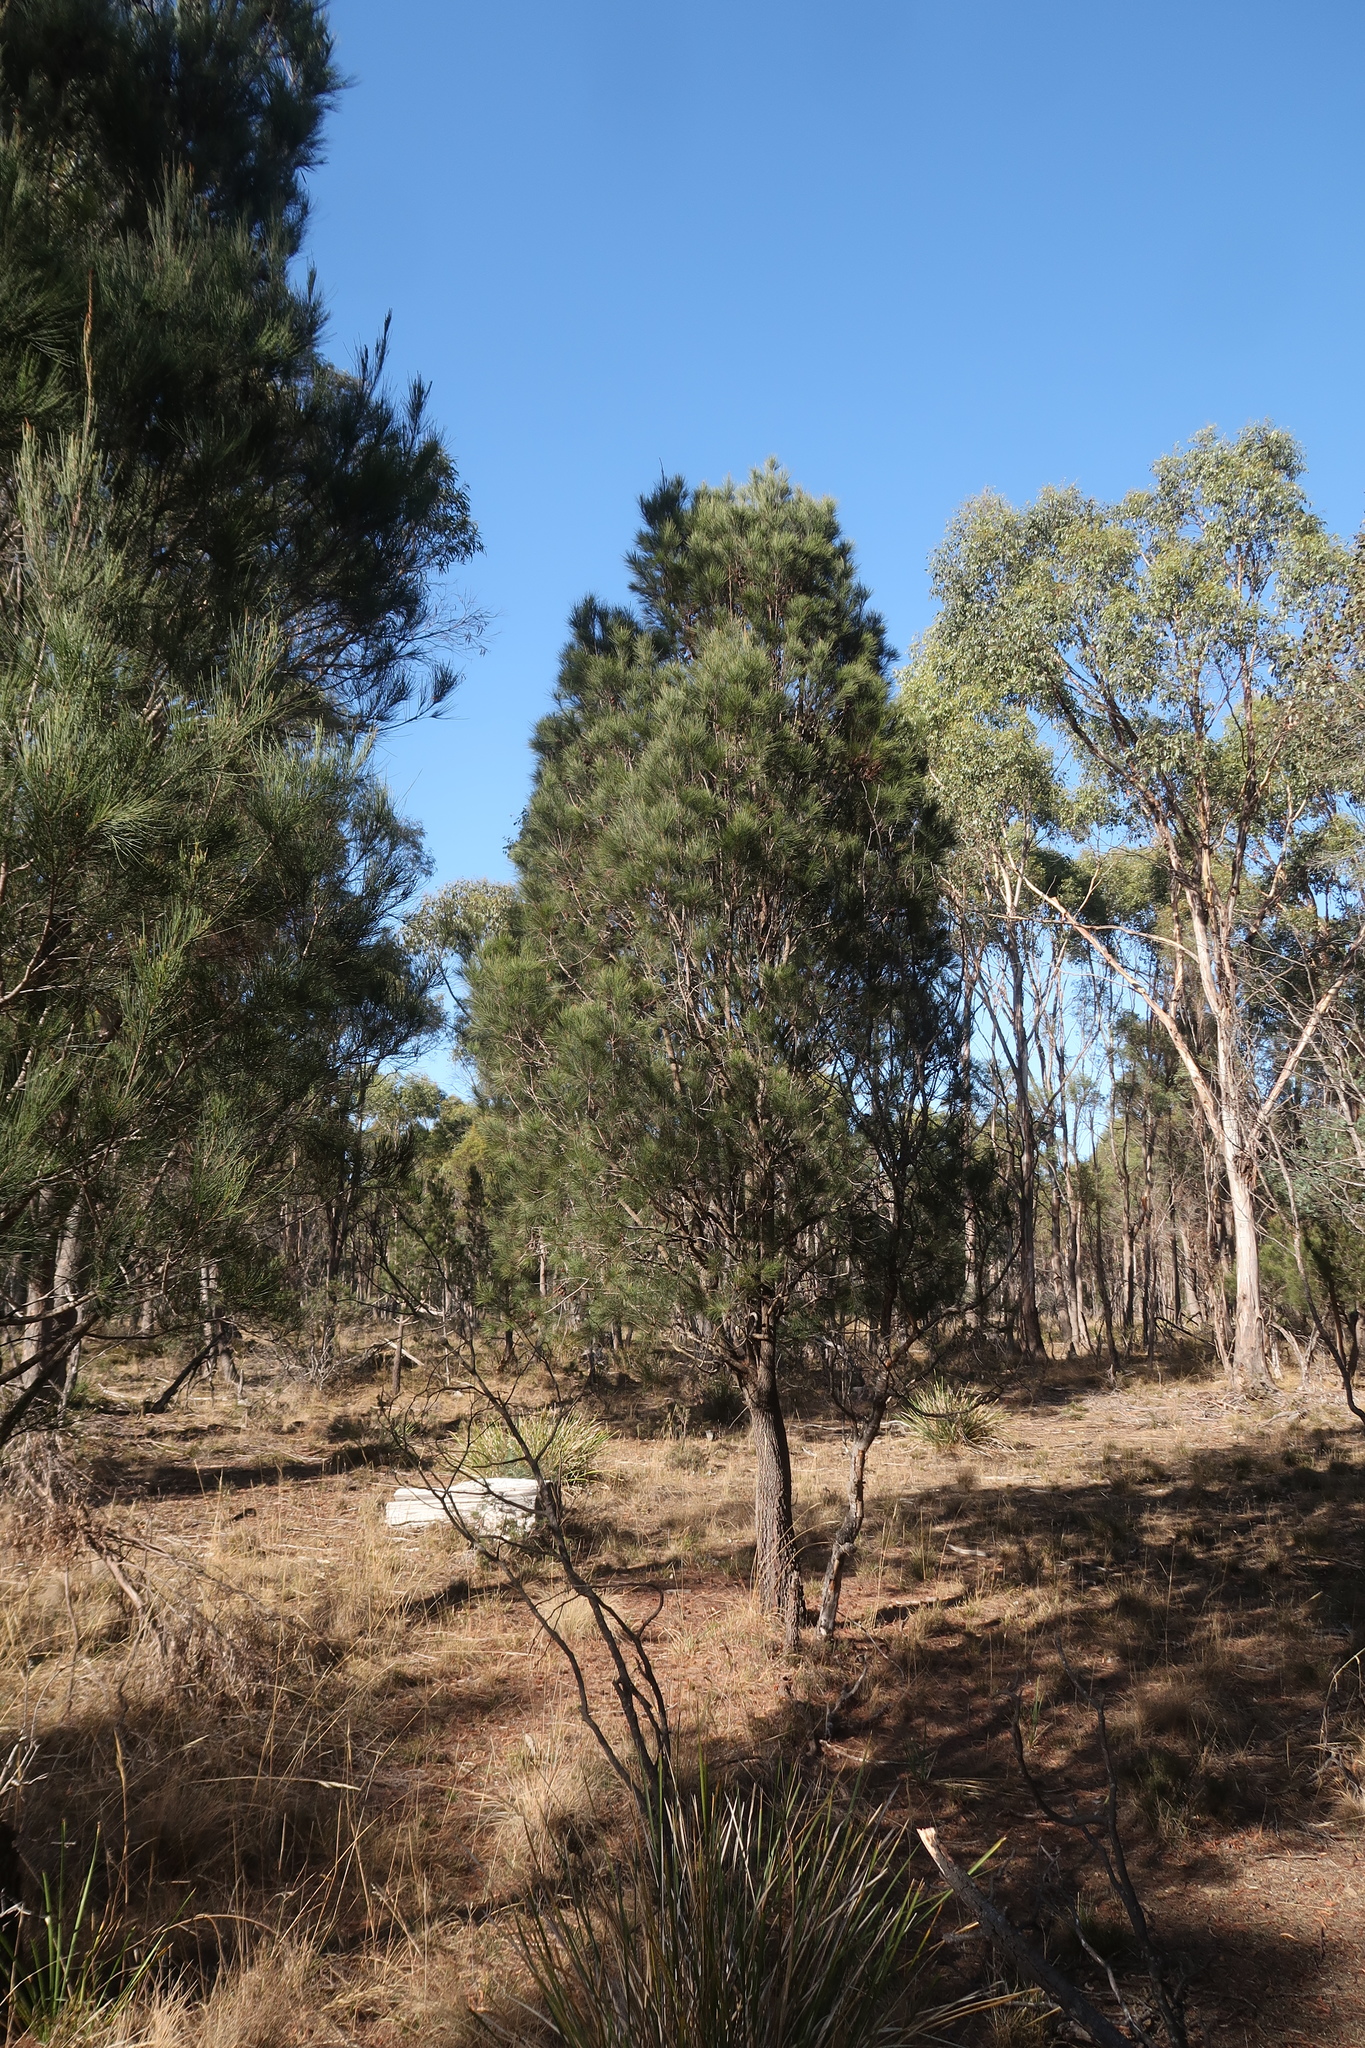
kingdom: Plantae
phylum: Tracheophyta
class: Magnoliopsida
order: Fagales
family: Casuarinaceae
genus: Allocasuarina
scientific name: Allocasuarina littoralis
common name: Black she-oak
